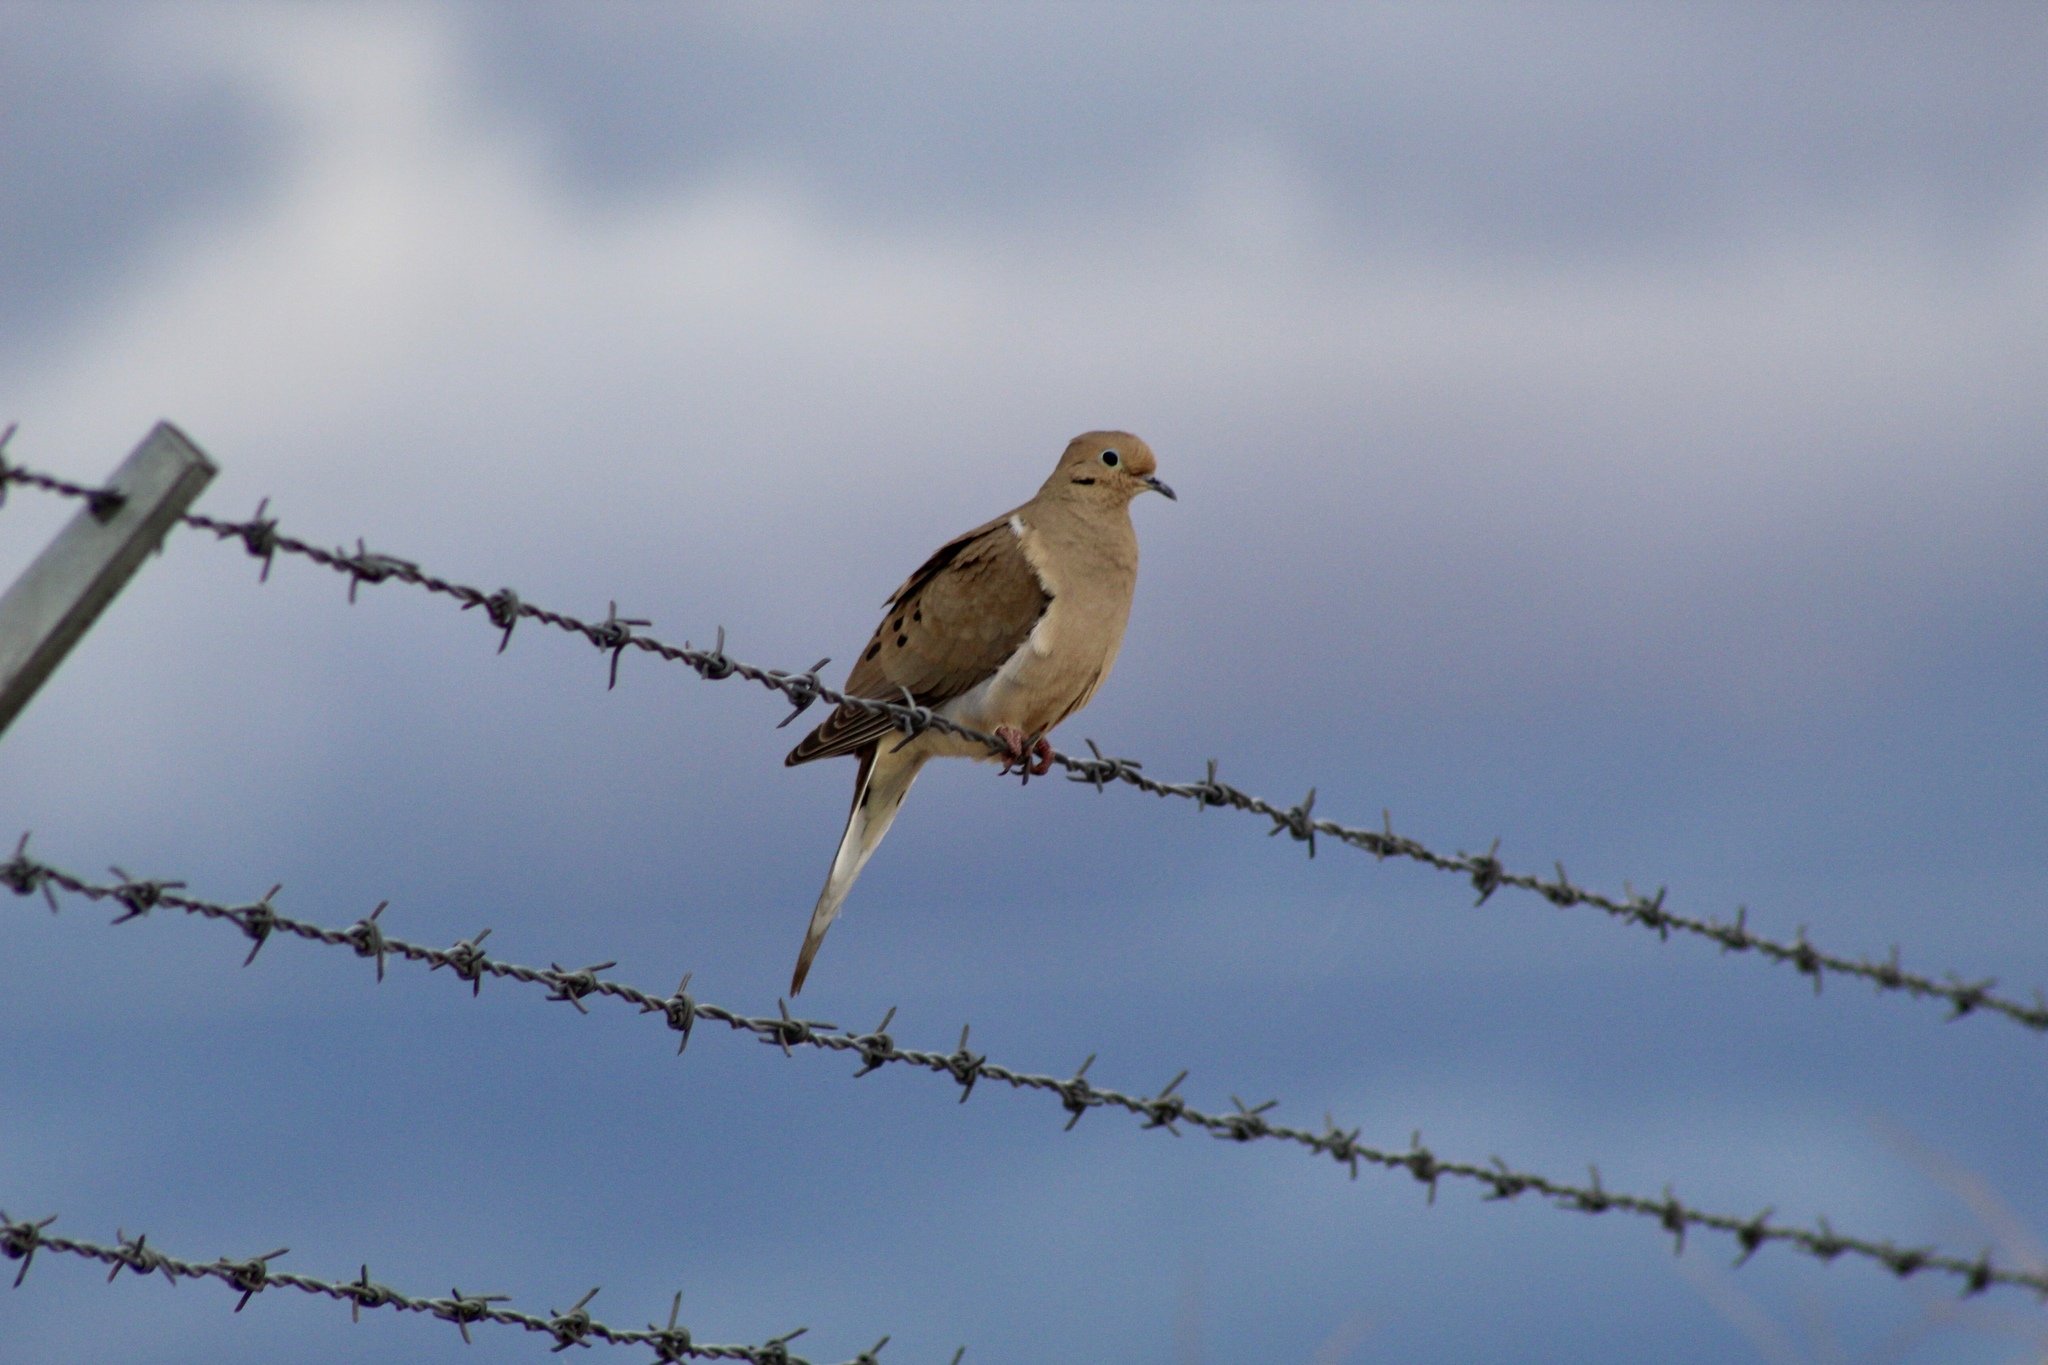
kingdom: Animalia
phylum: Chordata
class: Aves
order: Columbiformes
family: Columbidae
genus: Zenaida
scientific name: Zenaida macroura
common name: Mourning dove
